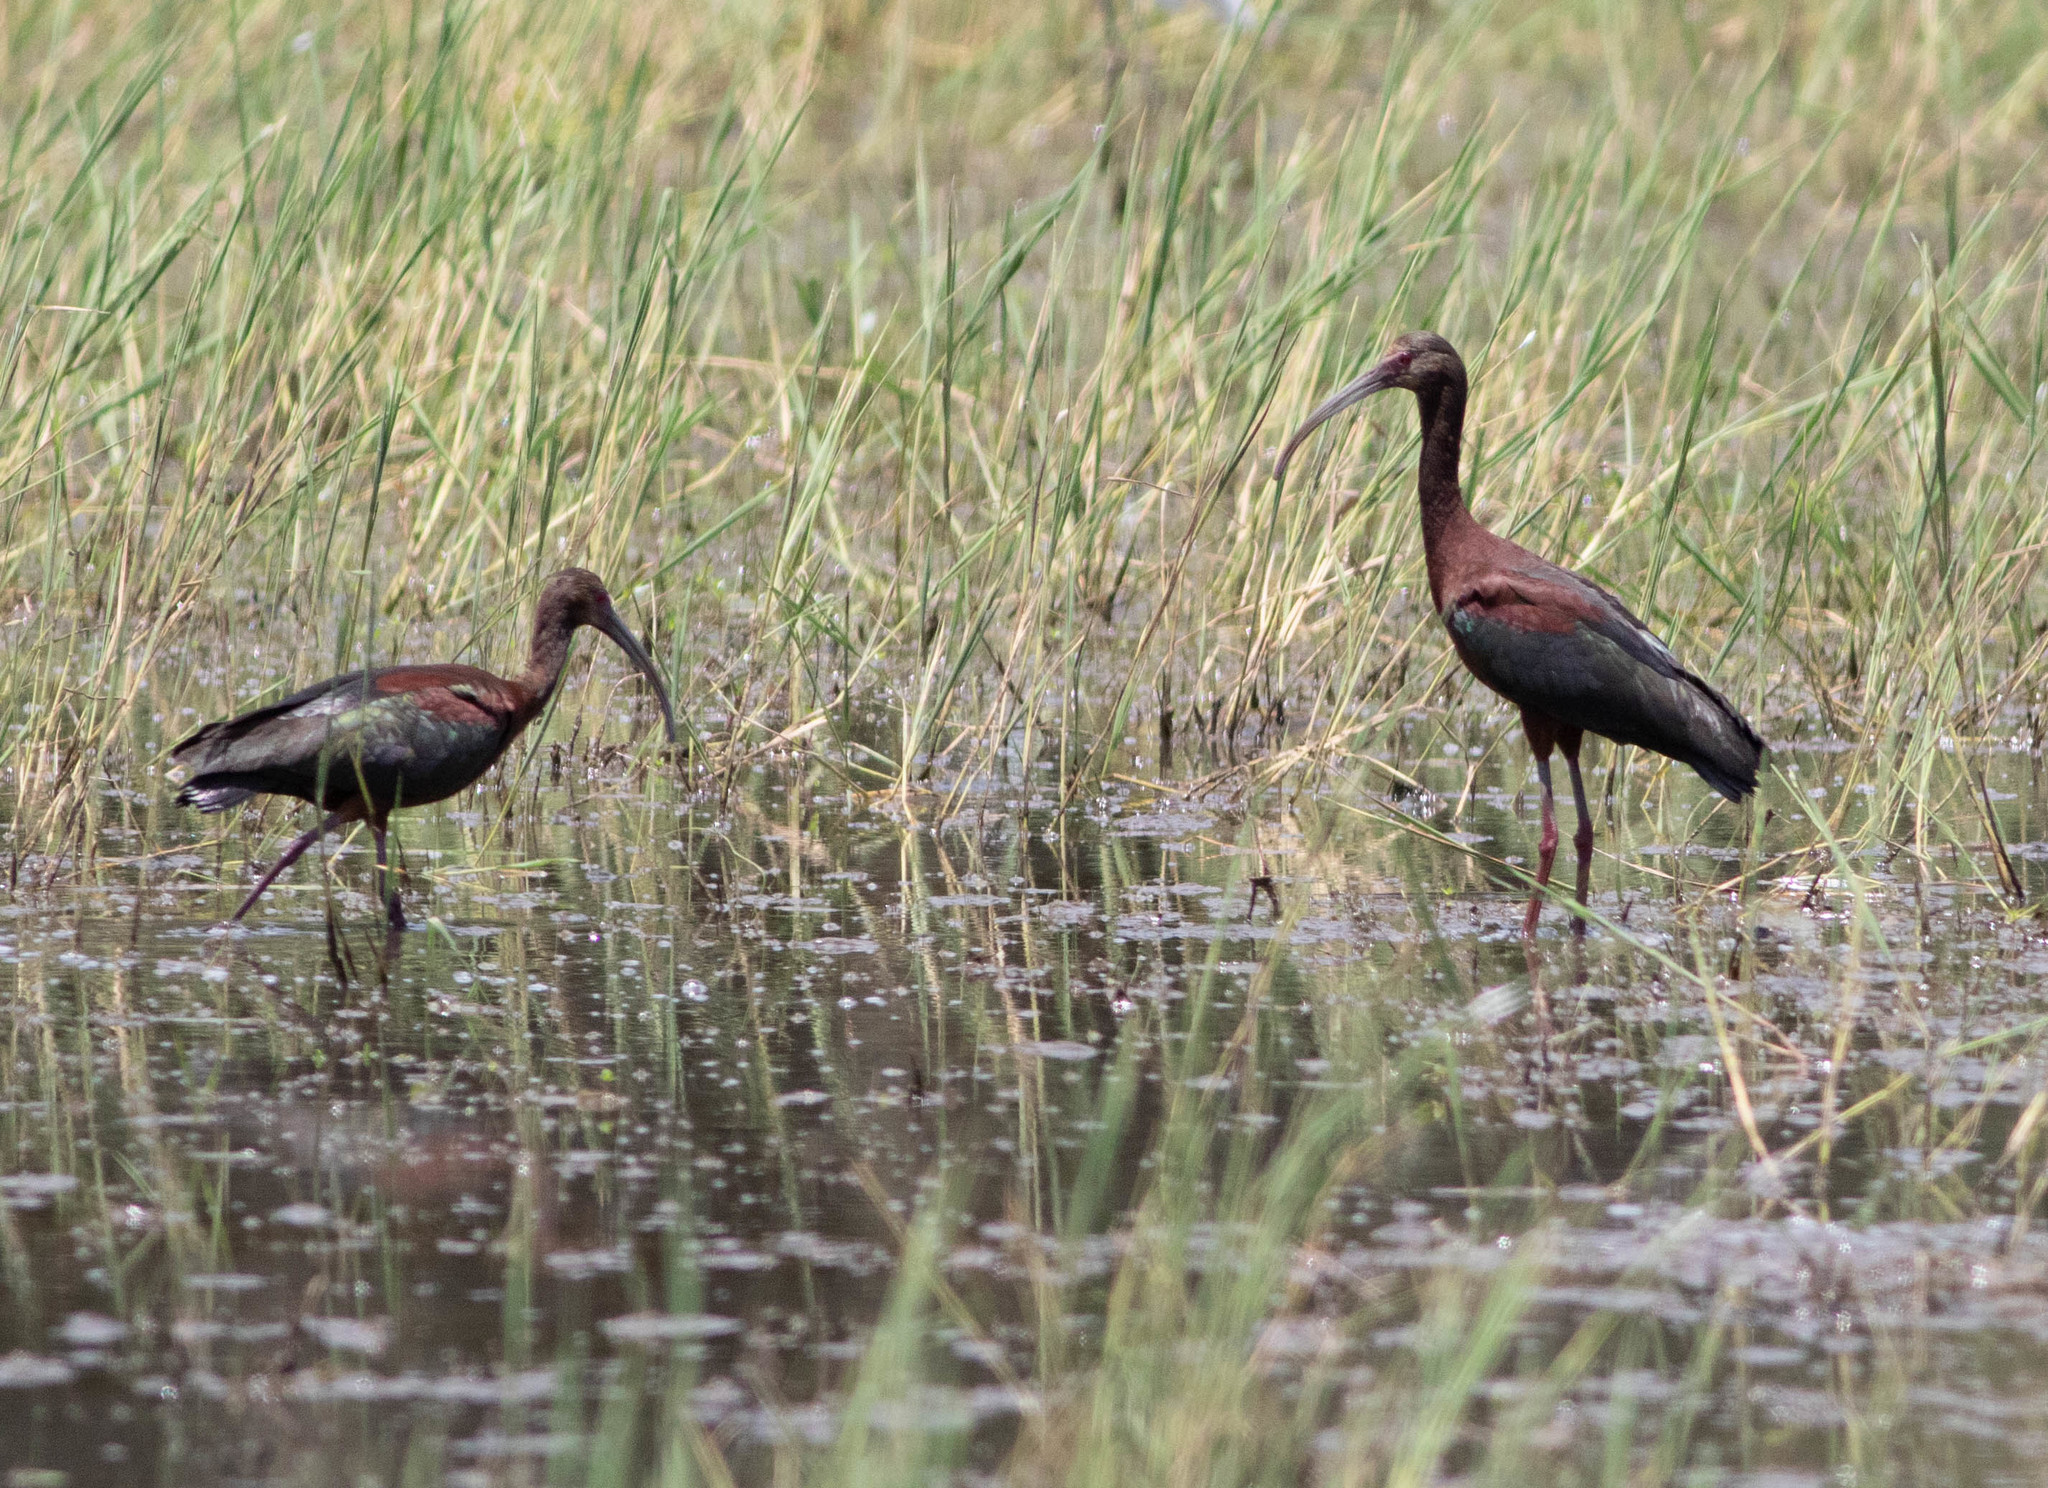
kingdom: Animalia
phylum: Chordata
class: Aves
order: Pelecaniformes
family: Threskiornithidae
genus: Plegadis
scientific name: Plegadis falcinellus
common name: Glossy ibis
